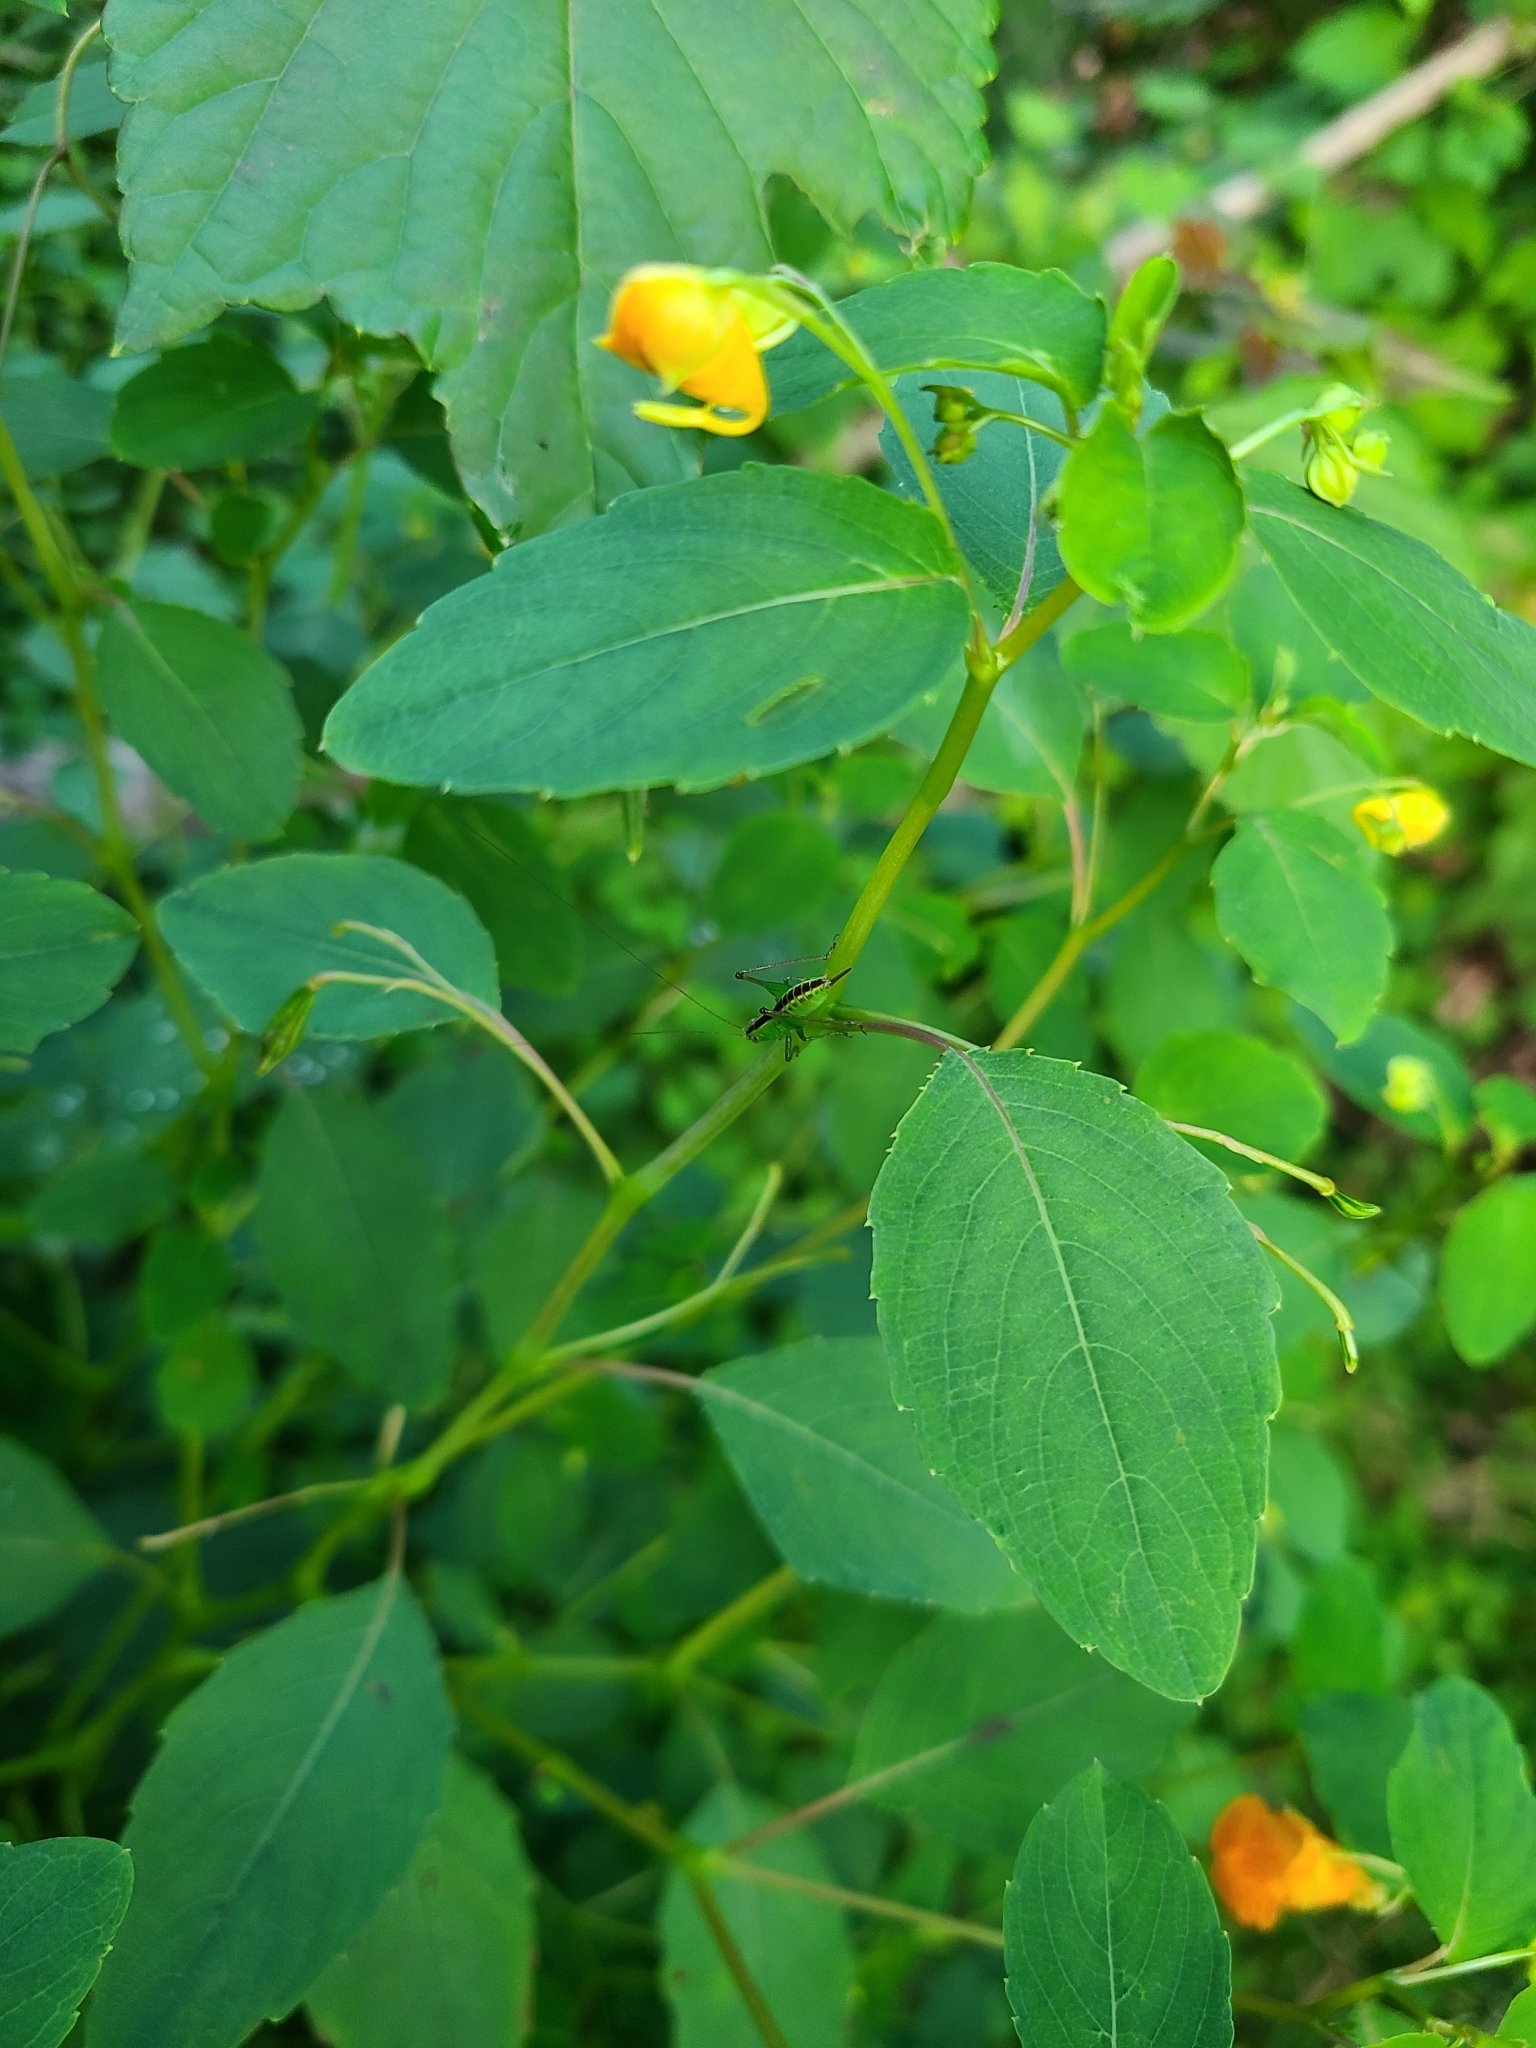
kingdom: Plantae
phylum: Tracheophyta
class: Magnoliopsida
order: Ericales
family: Balsaminaceae
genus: Impatiens
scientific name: Impatiens capensis
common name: Orange balsam
